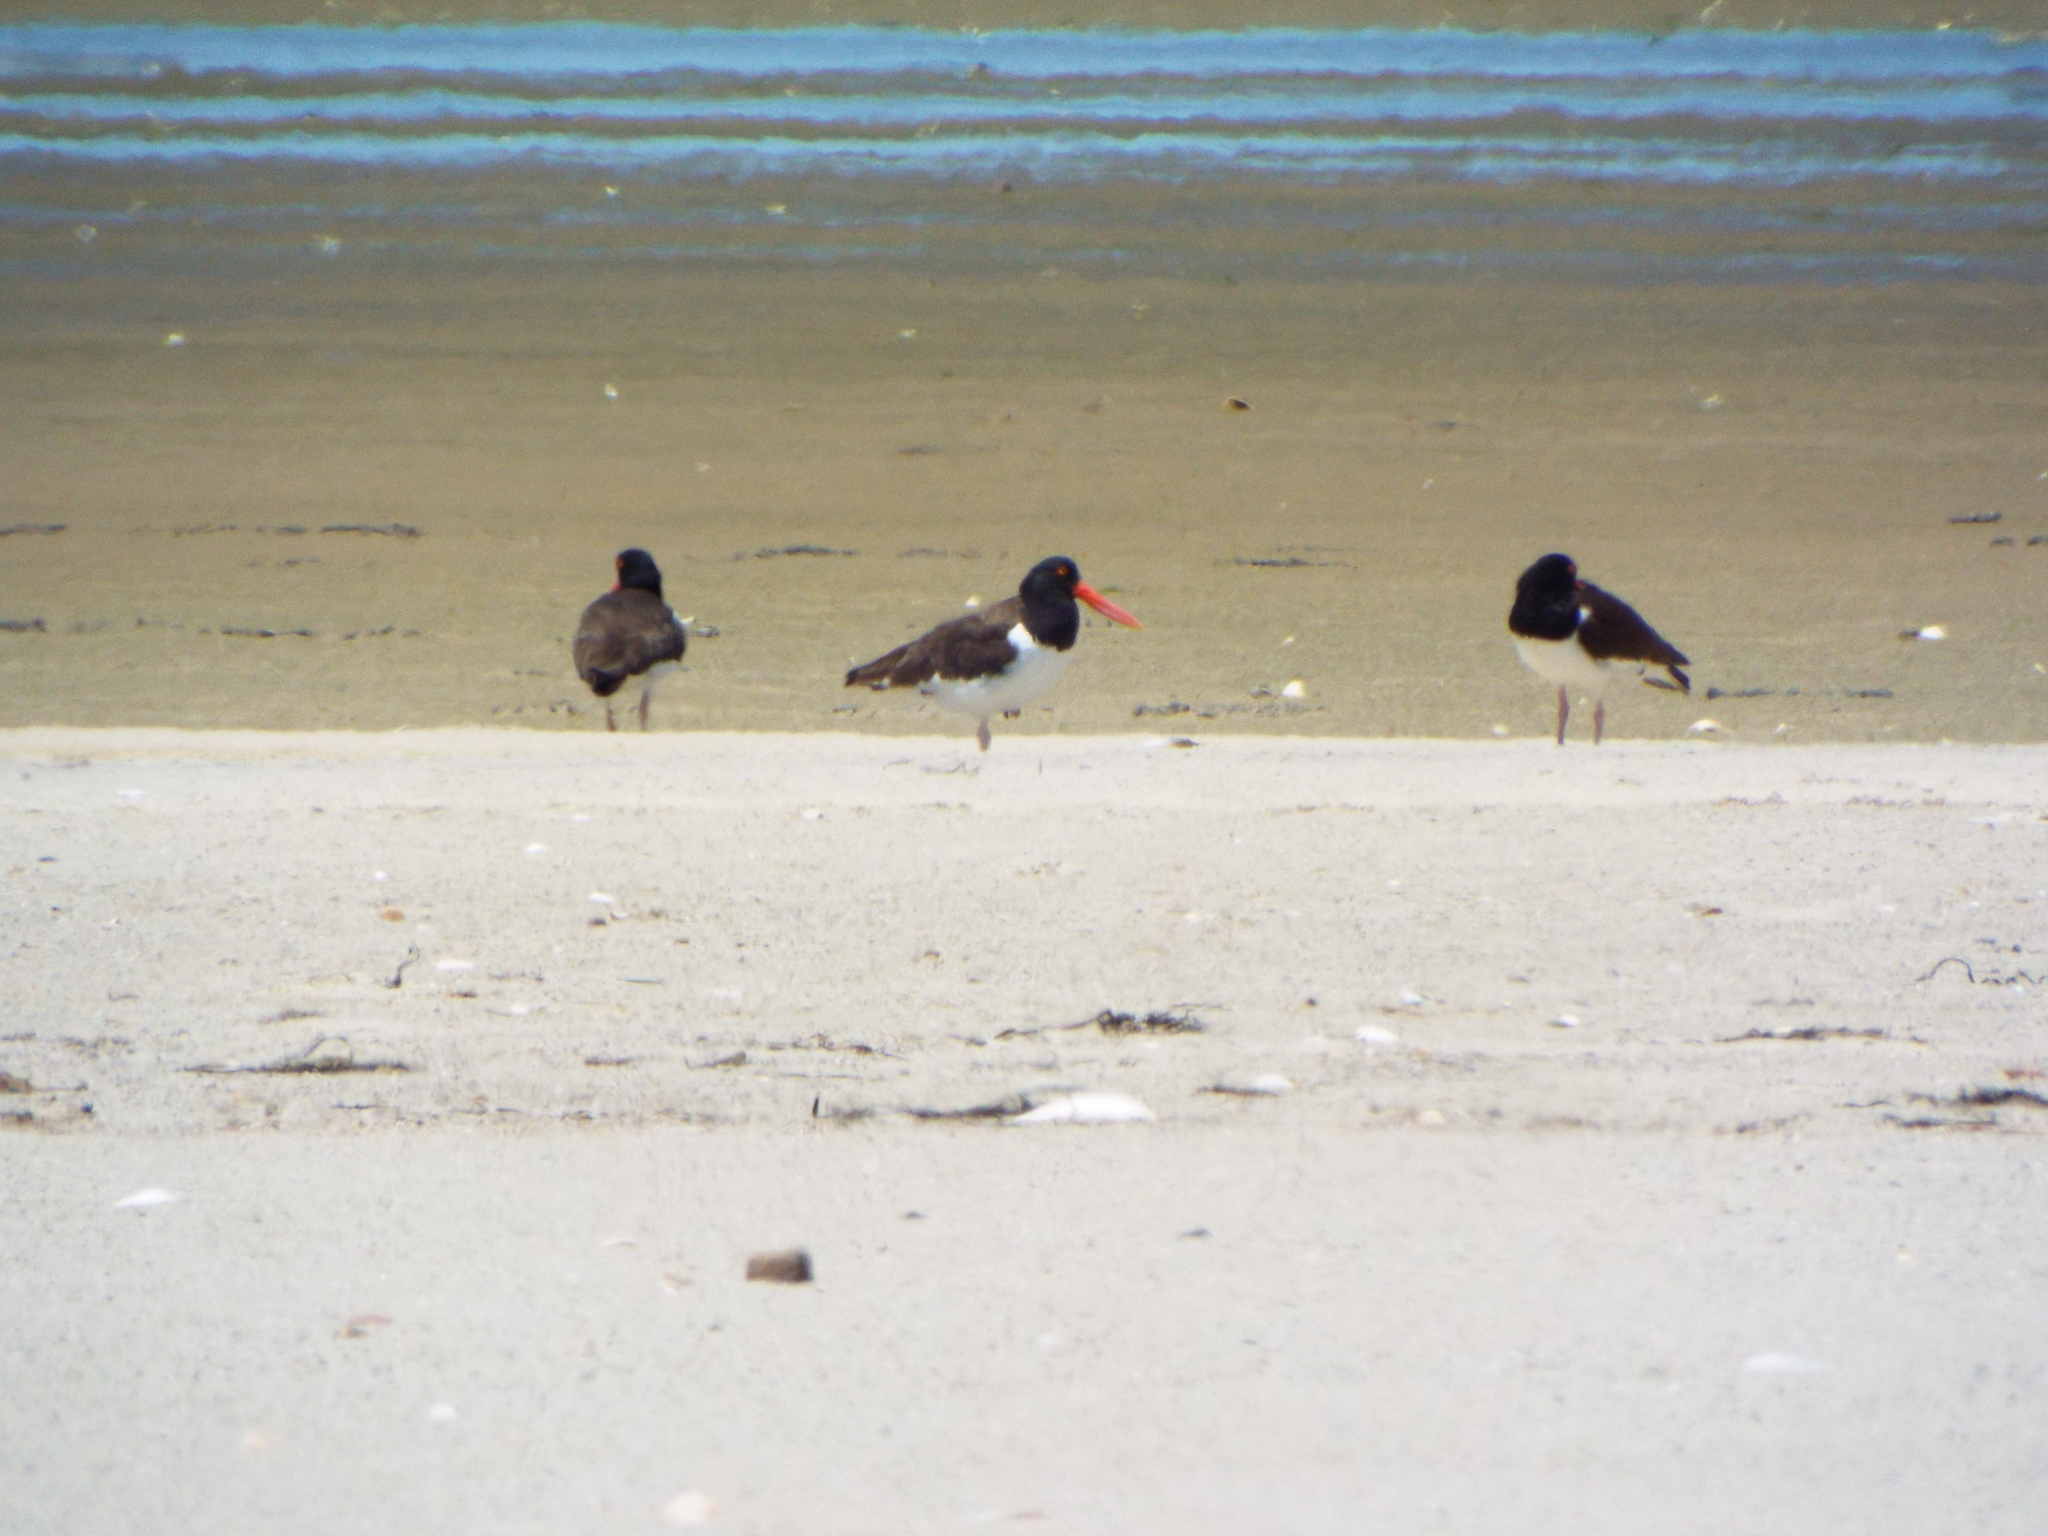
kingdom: Animalia
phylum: Chordata
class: Aves
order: Charadriiformes
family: Haematopodidae
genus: Haematopus
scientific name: Haematopus palliatus
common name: American oystercatcher
